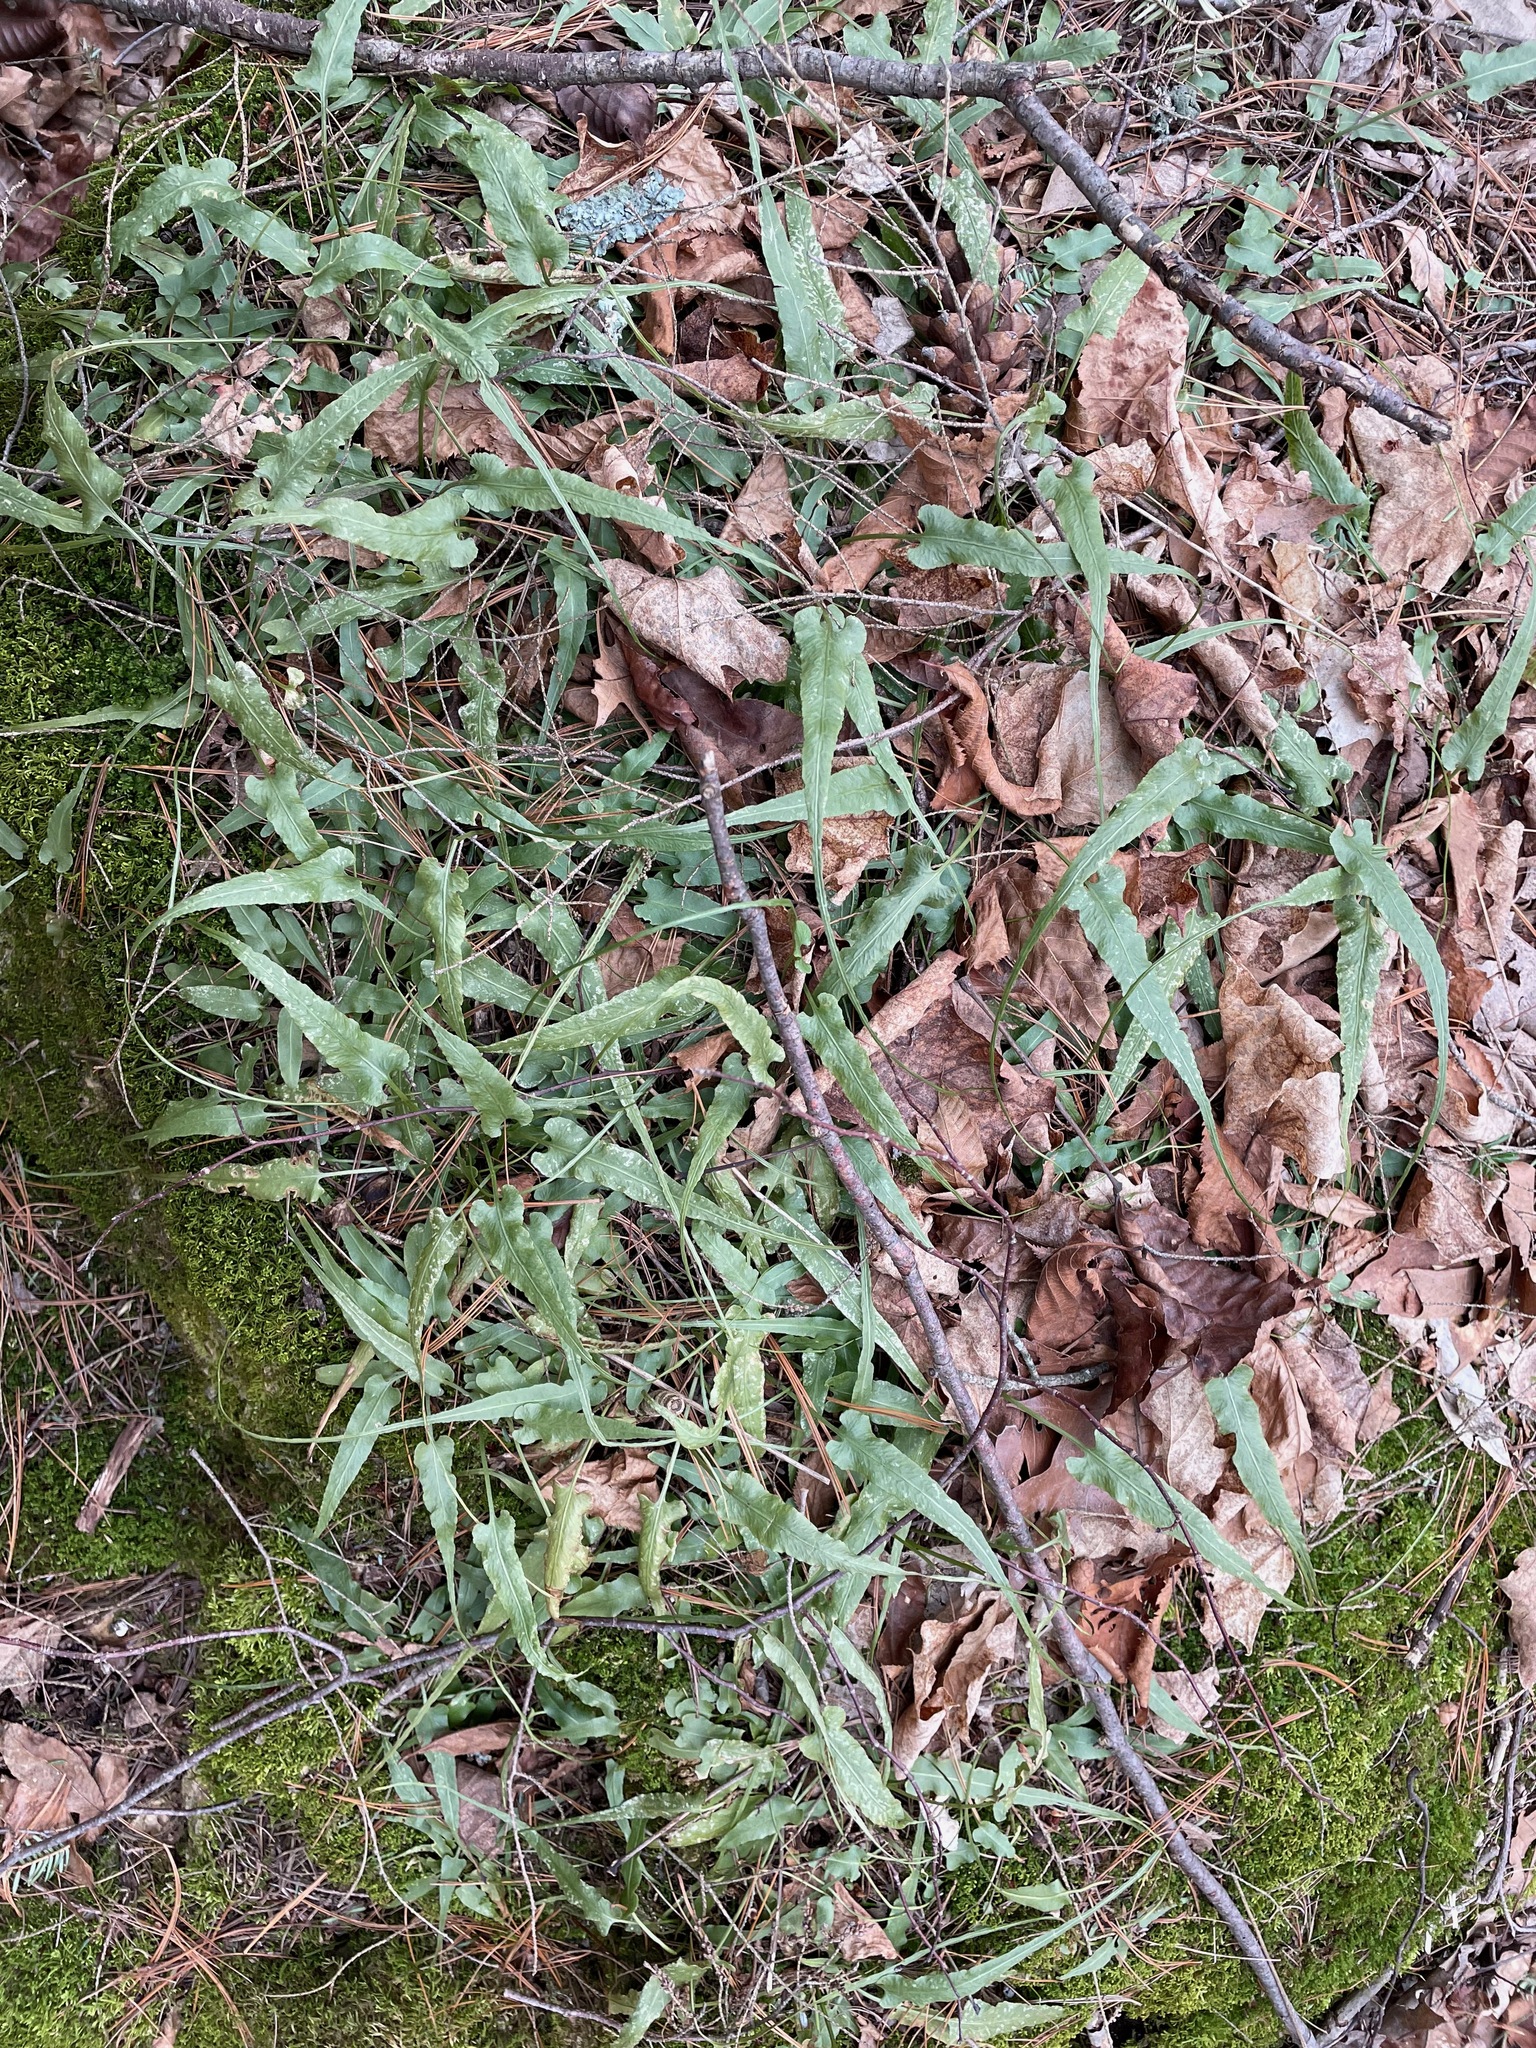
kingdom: Plantae
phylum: Tracheophyta
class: Polypodiopsida
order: Polypodiales
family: Aspleniaceae
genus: Asplenium
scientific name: Asplenium rhizophyllum
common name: Walking fern
